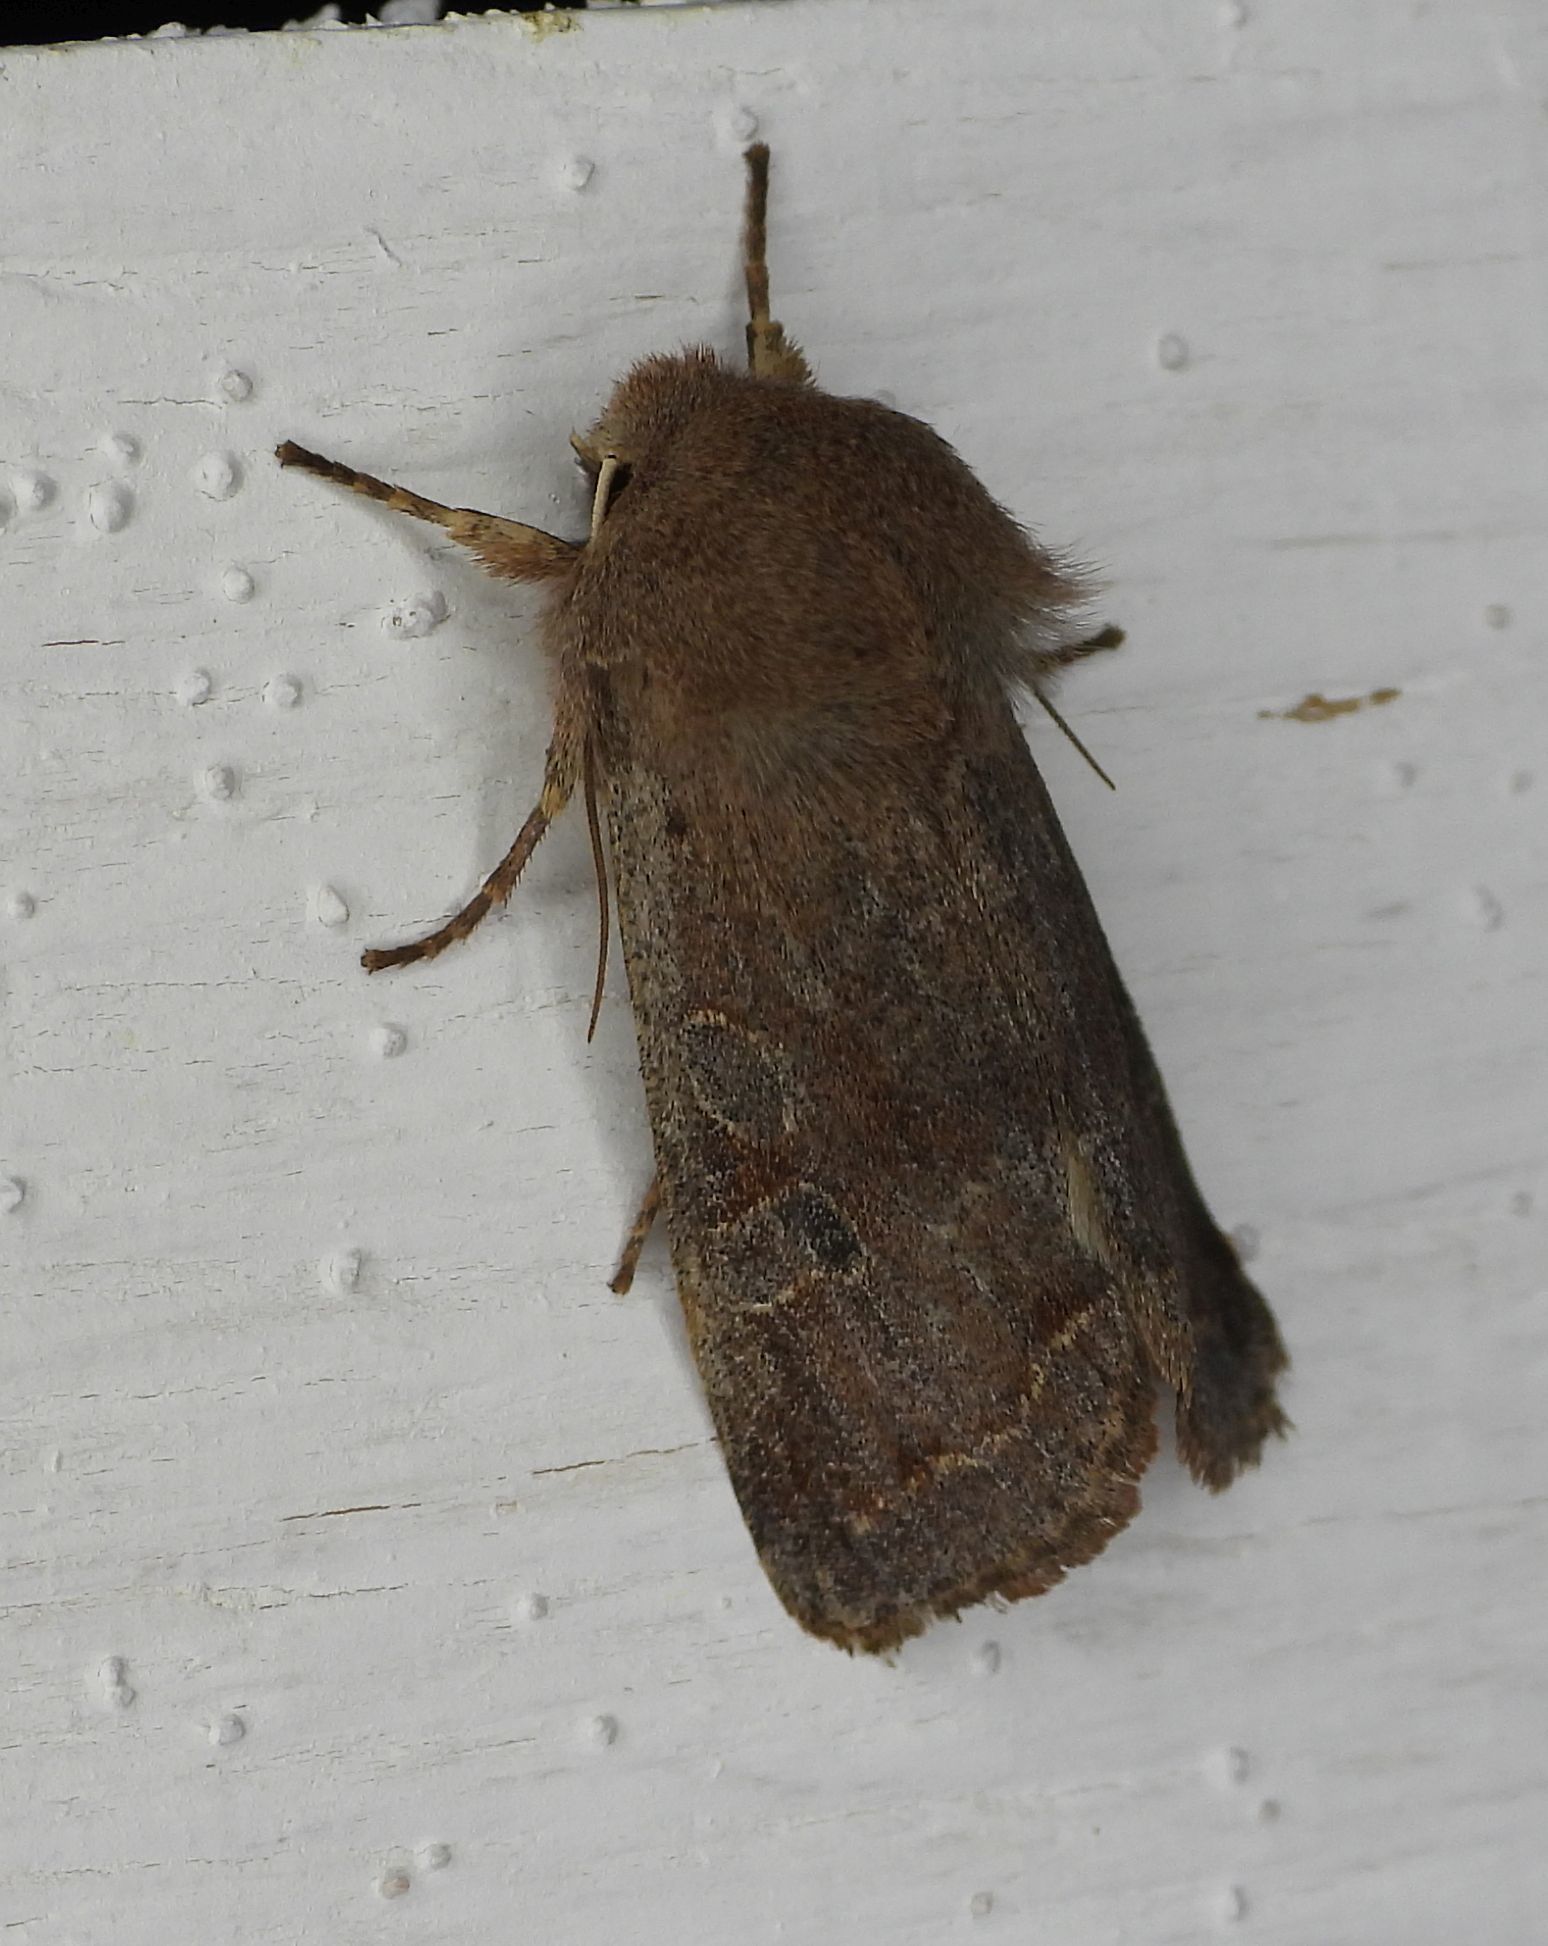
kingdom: Animalia
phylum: Arthropoda
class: Insecta
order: Lepidoptera
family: Noctuidae
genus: Orthosia
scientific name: Orthosia hibisci
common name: Green fruitworm
